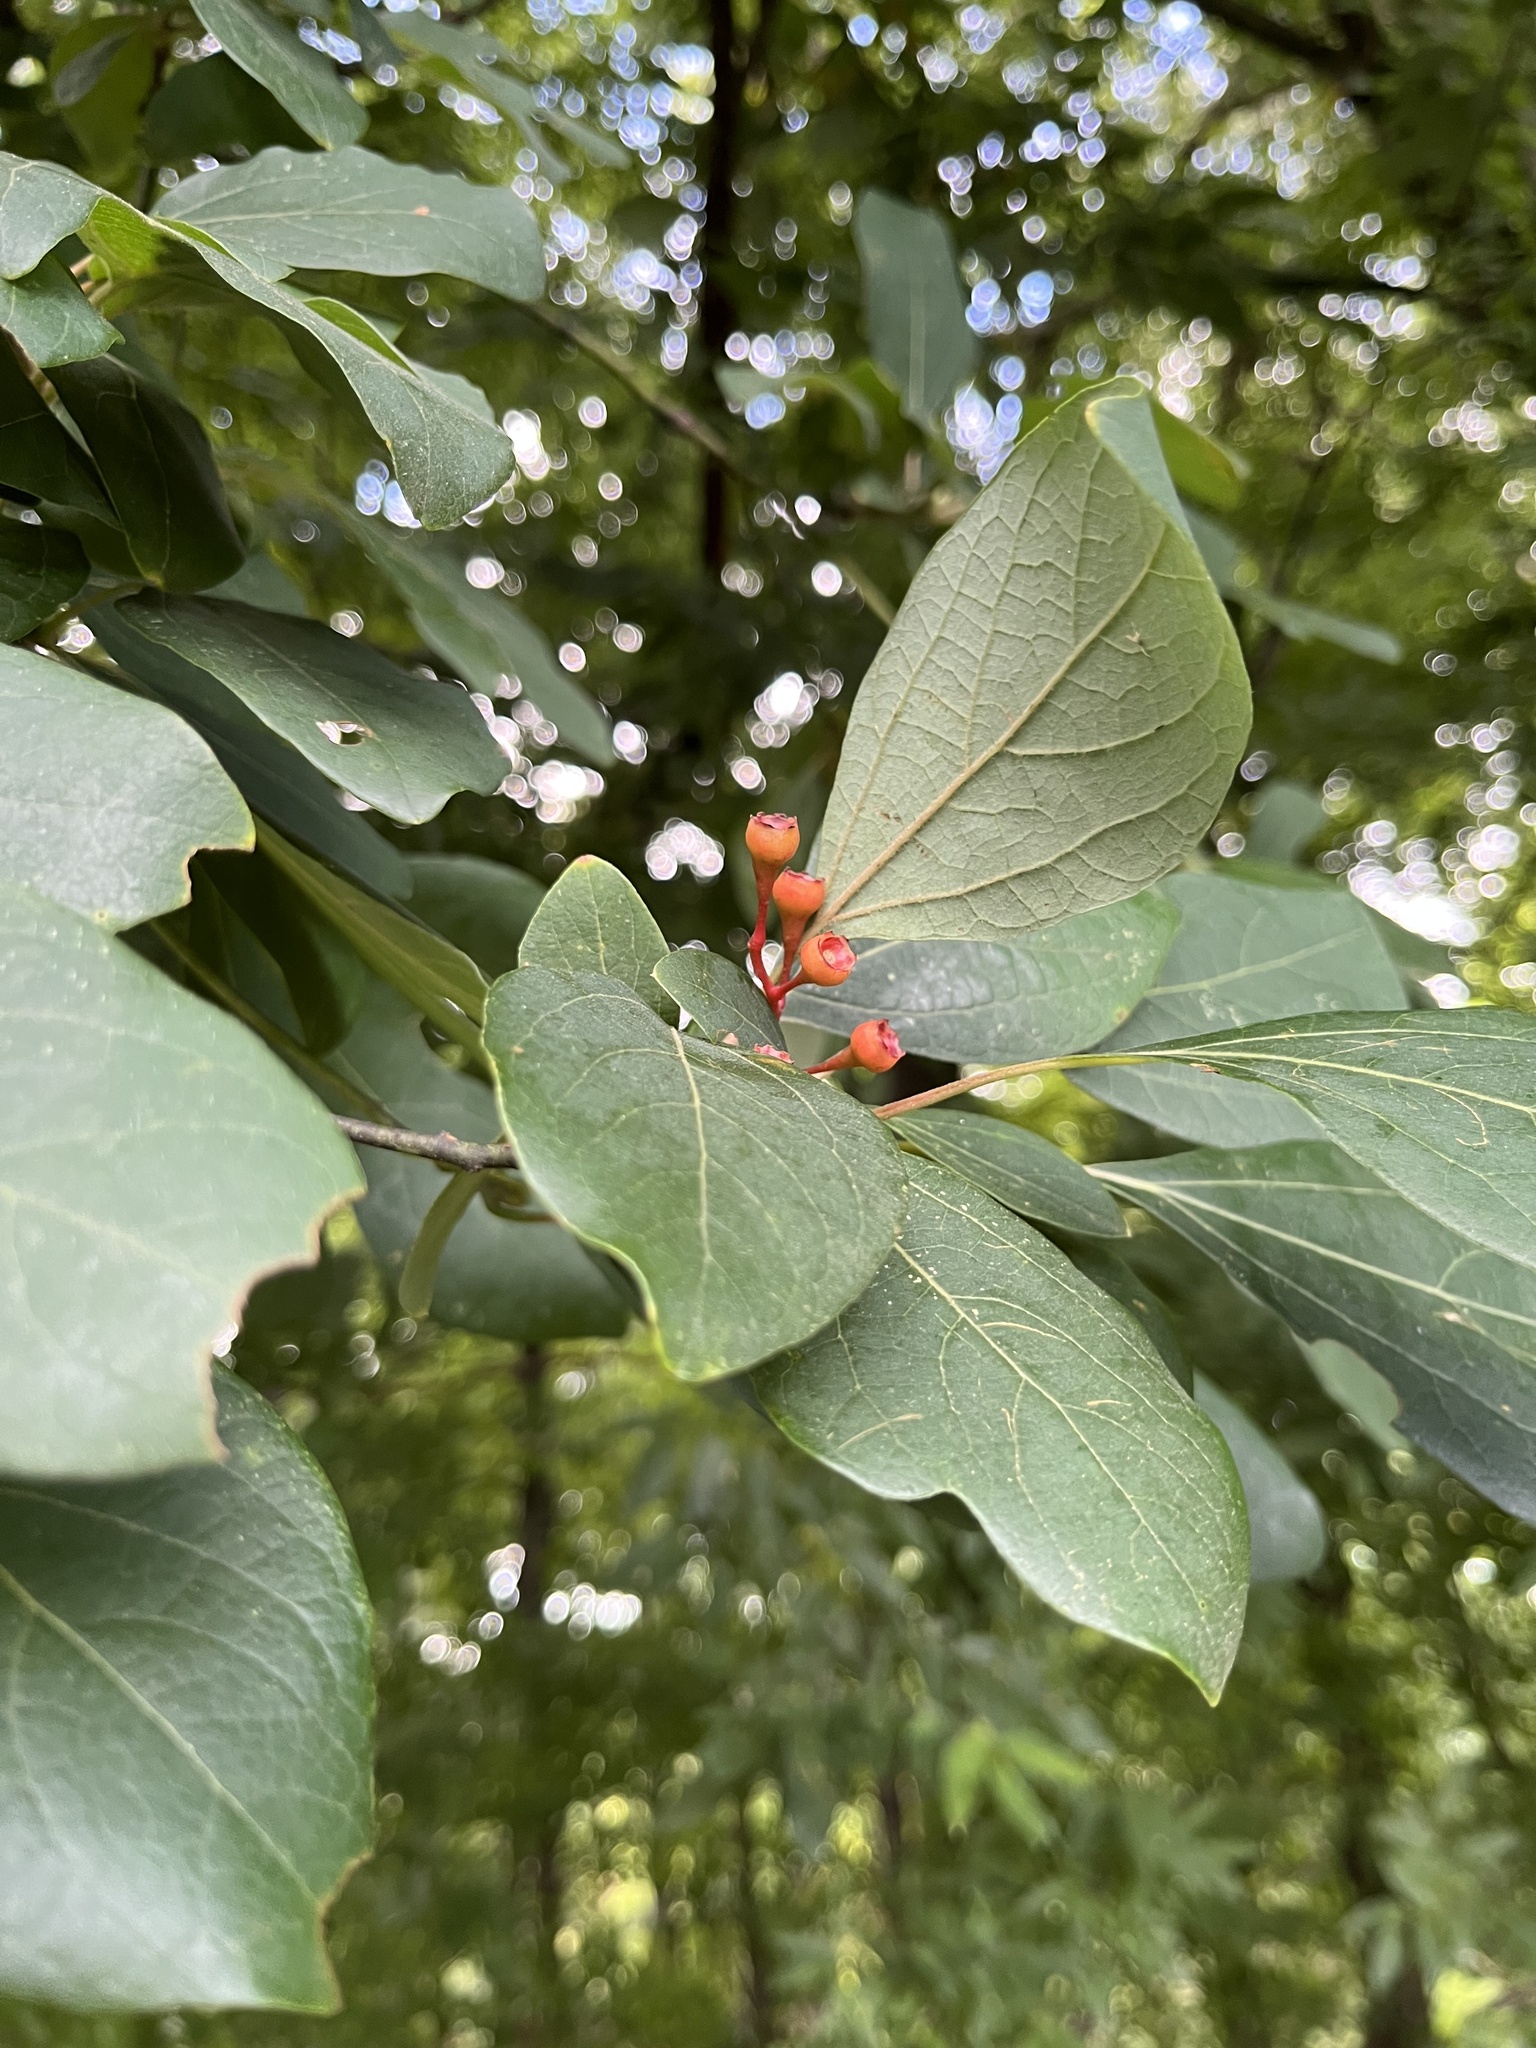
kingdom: Plantae
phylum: Tracheophyta
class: Magnoliopsida
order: Laurales
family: Lauraceae
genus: Sassafras
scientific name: Sassafras albidum
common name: Sassafras
